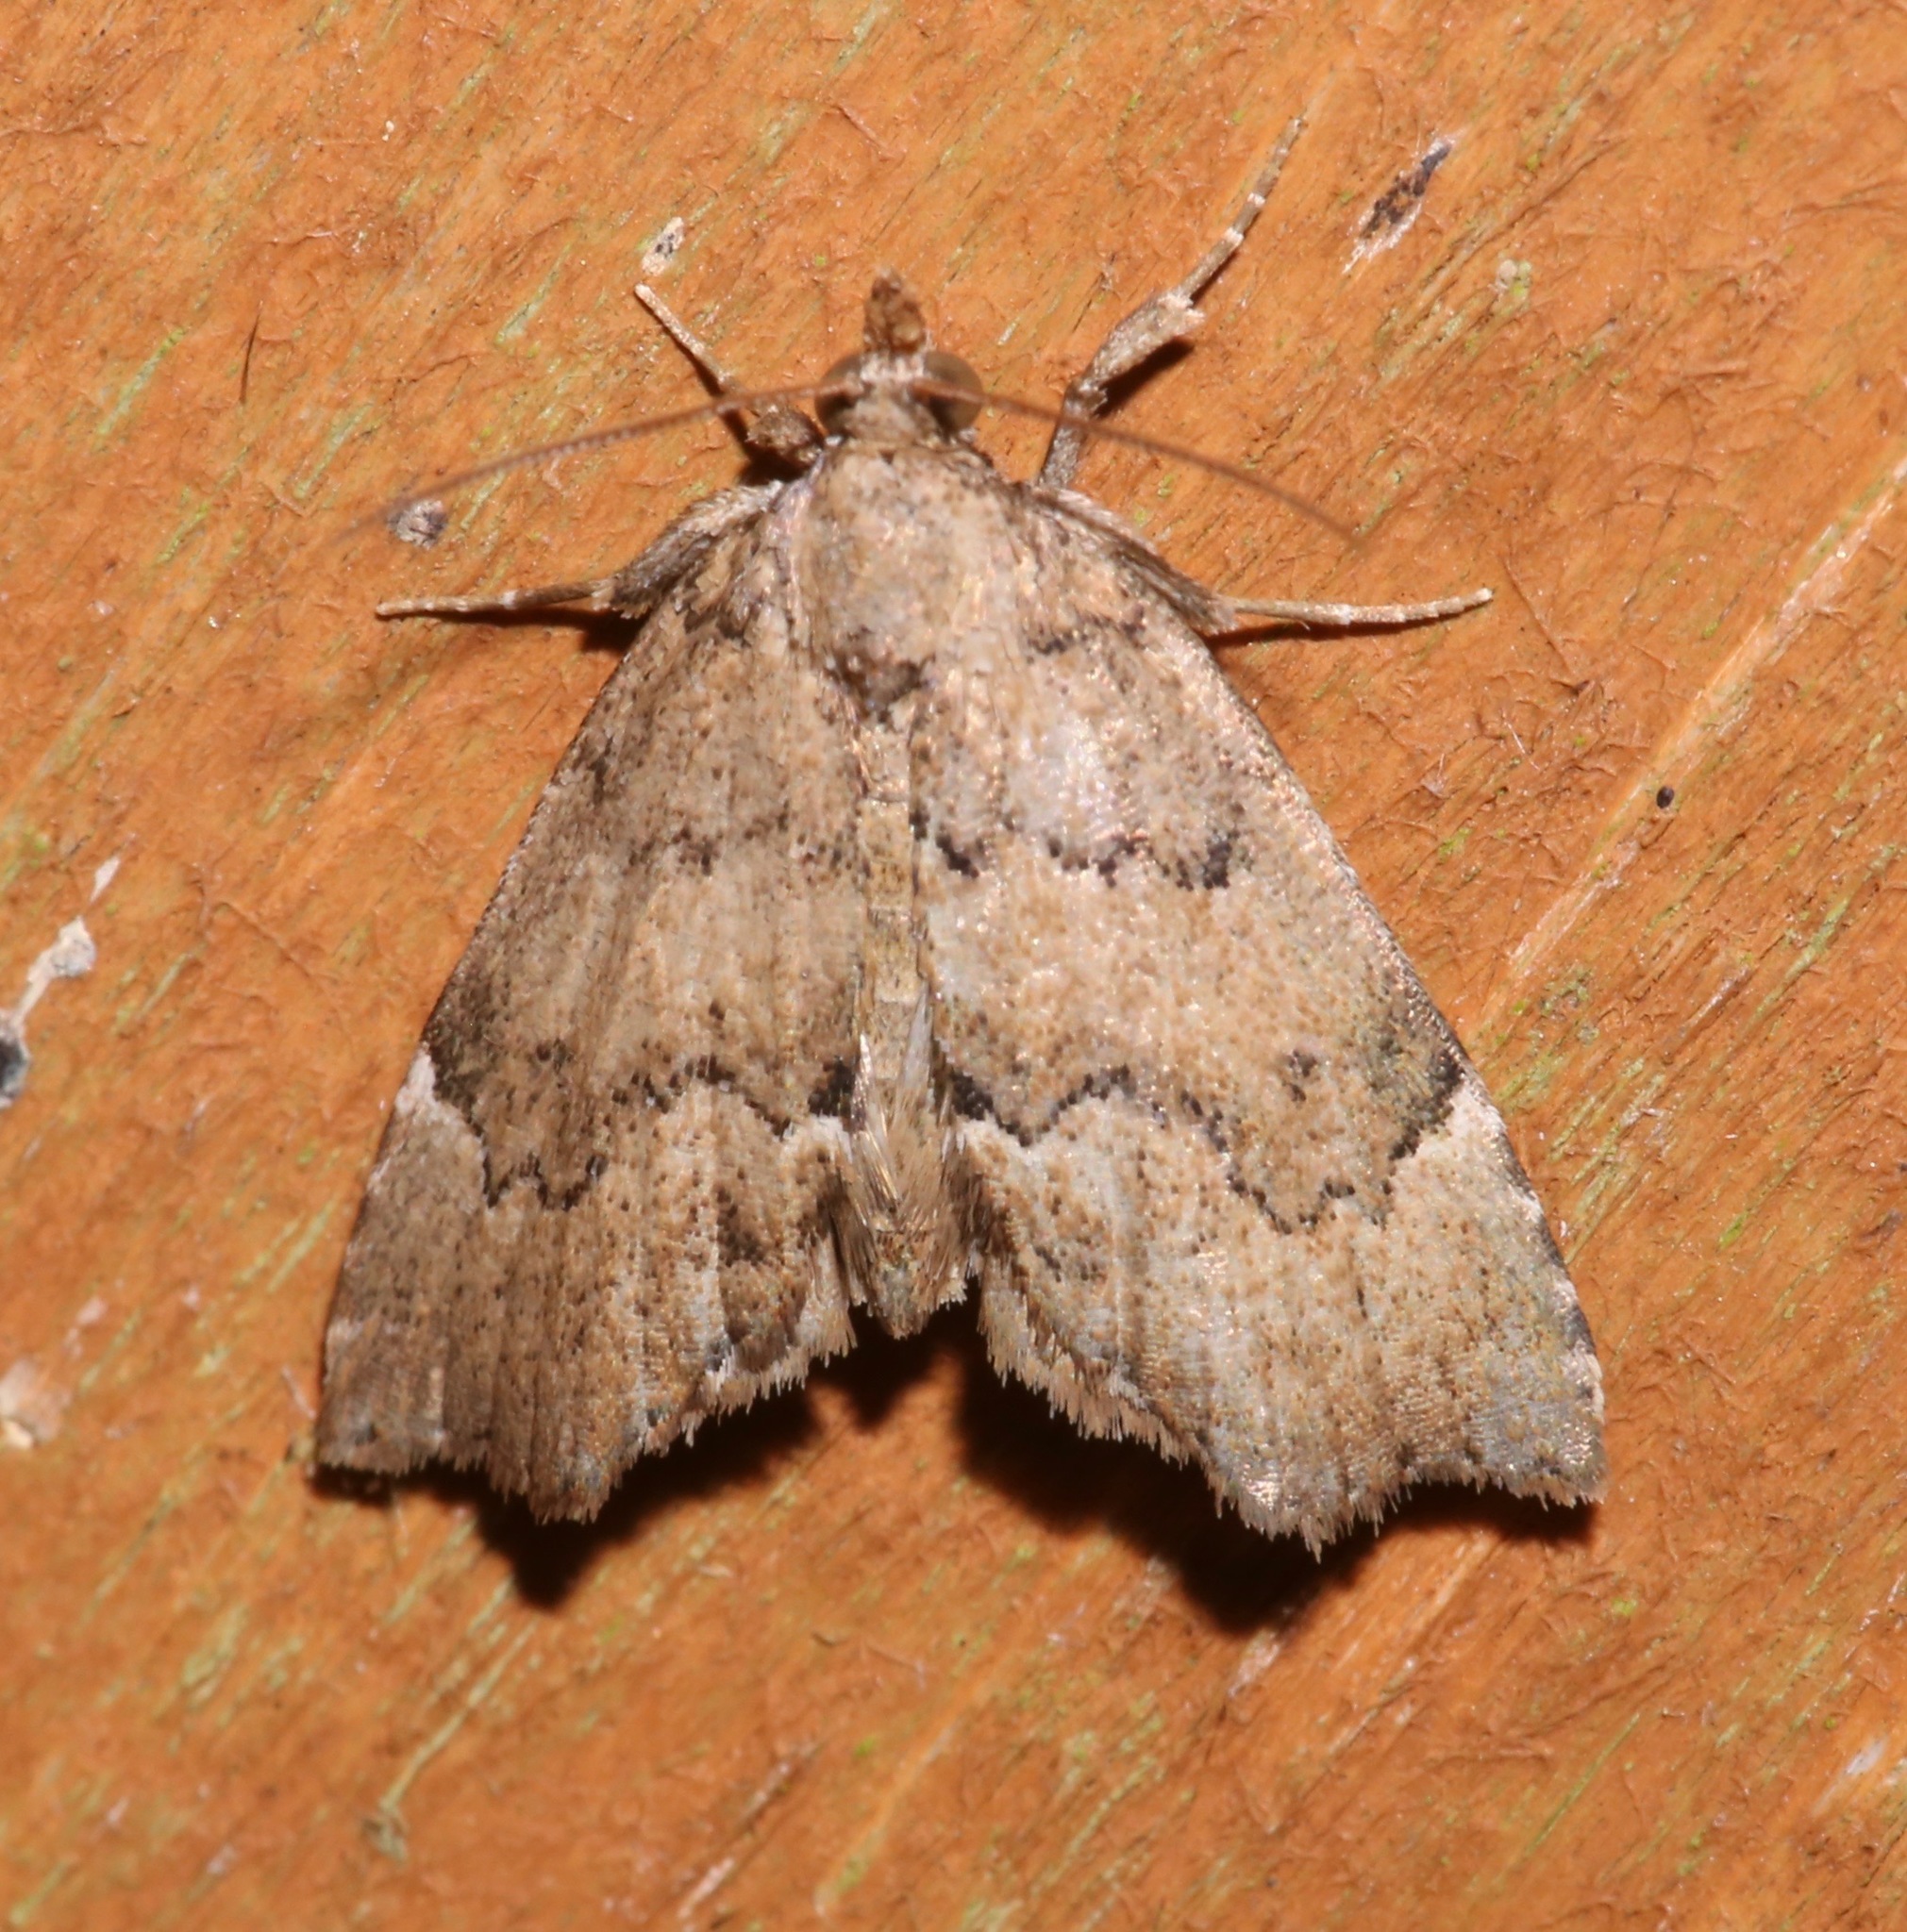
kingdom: Animalia
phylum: Arthropoda
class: Insecta
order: Lepidoptera
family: Erebidae
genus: Cutina
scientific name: Cutina aluticolor
